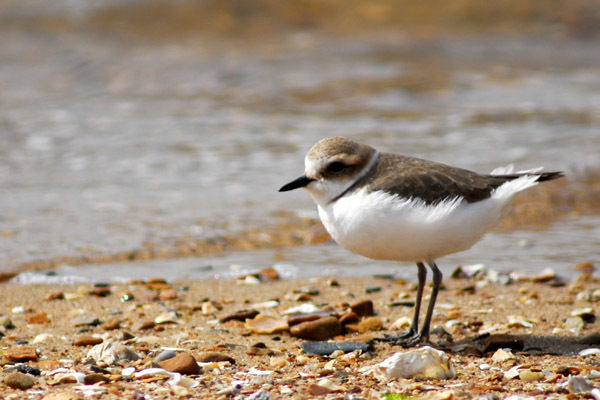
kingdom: Animalia
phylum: Chordata
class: Aves
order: Charadriiformes
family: Charadriidae
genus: Charadrius
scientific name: Charadrius alexandrinus
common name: Kentish plover
